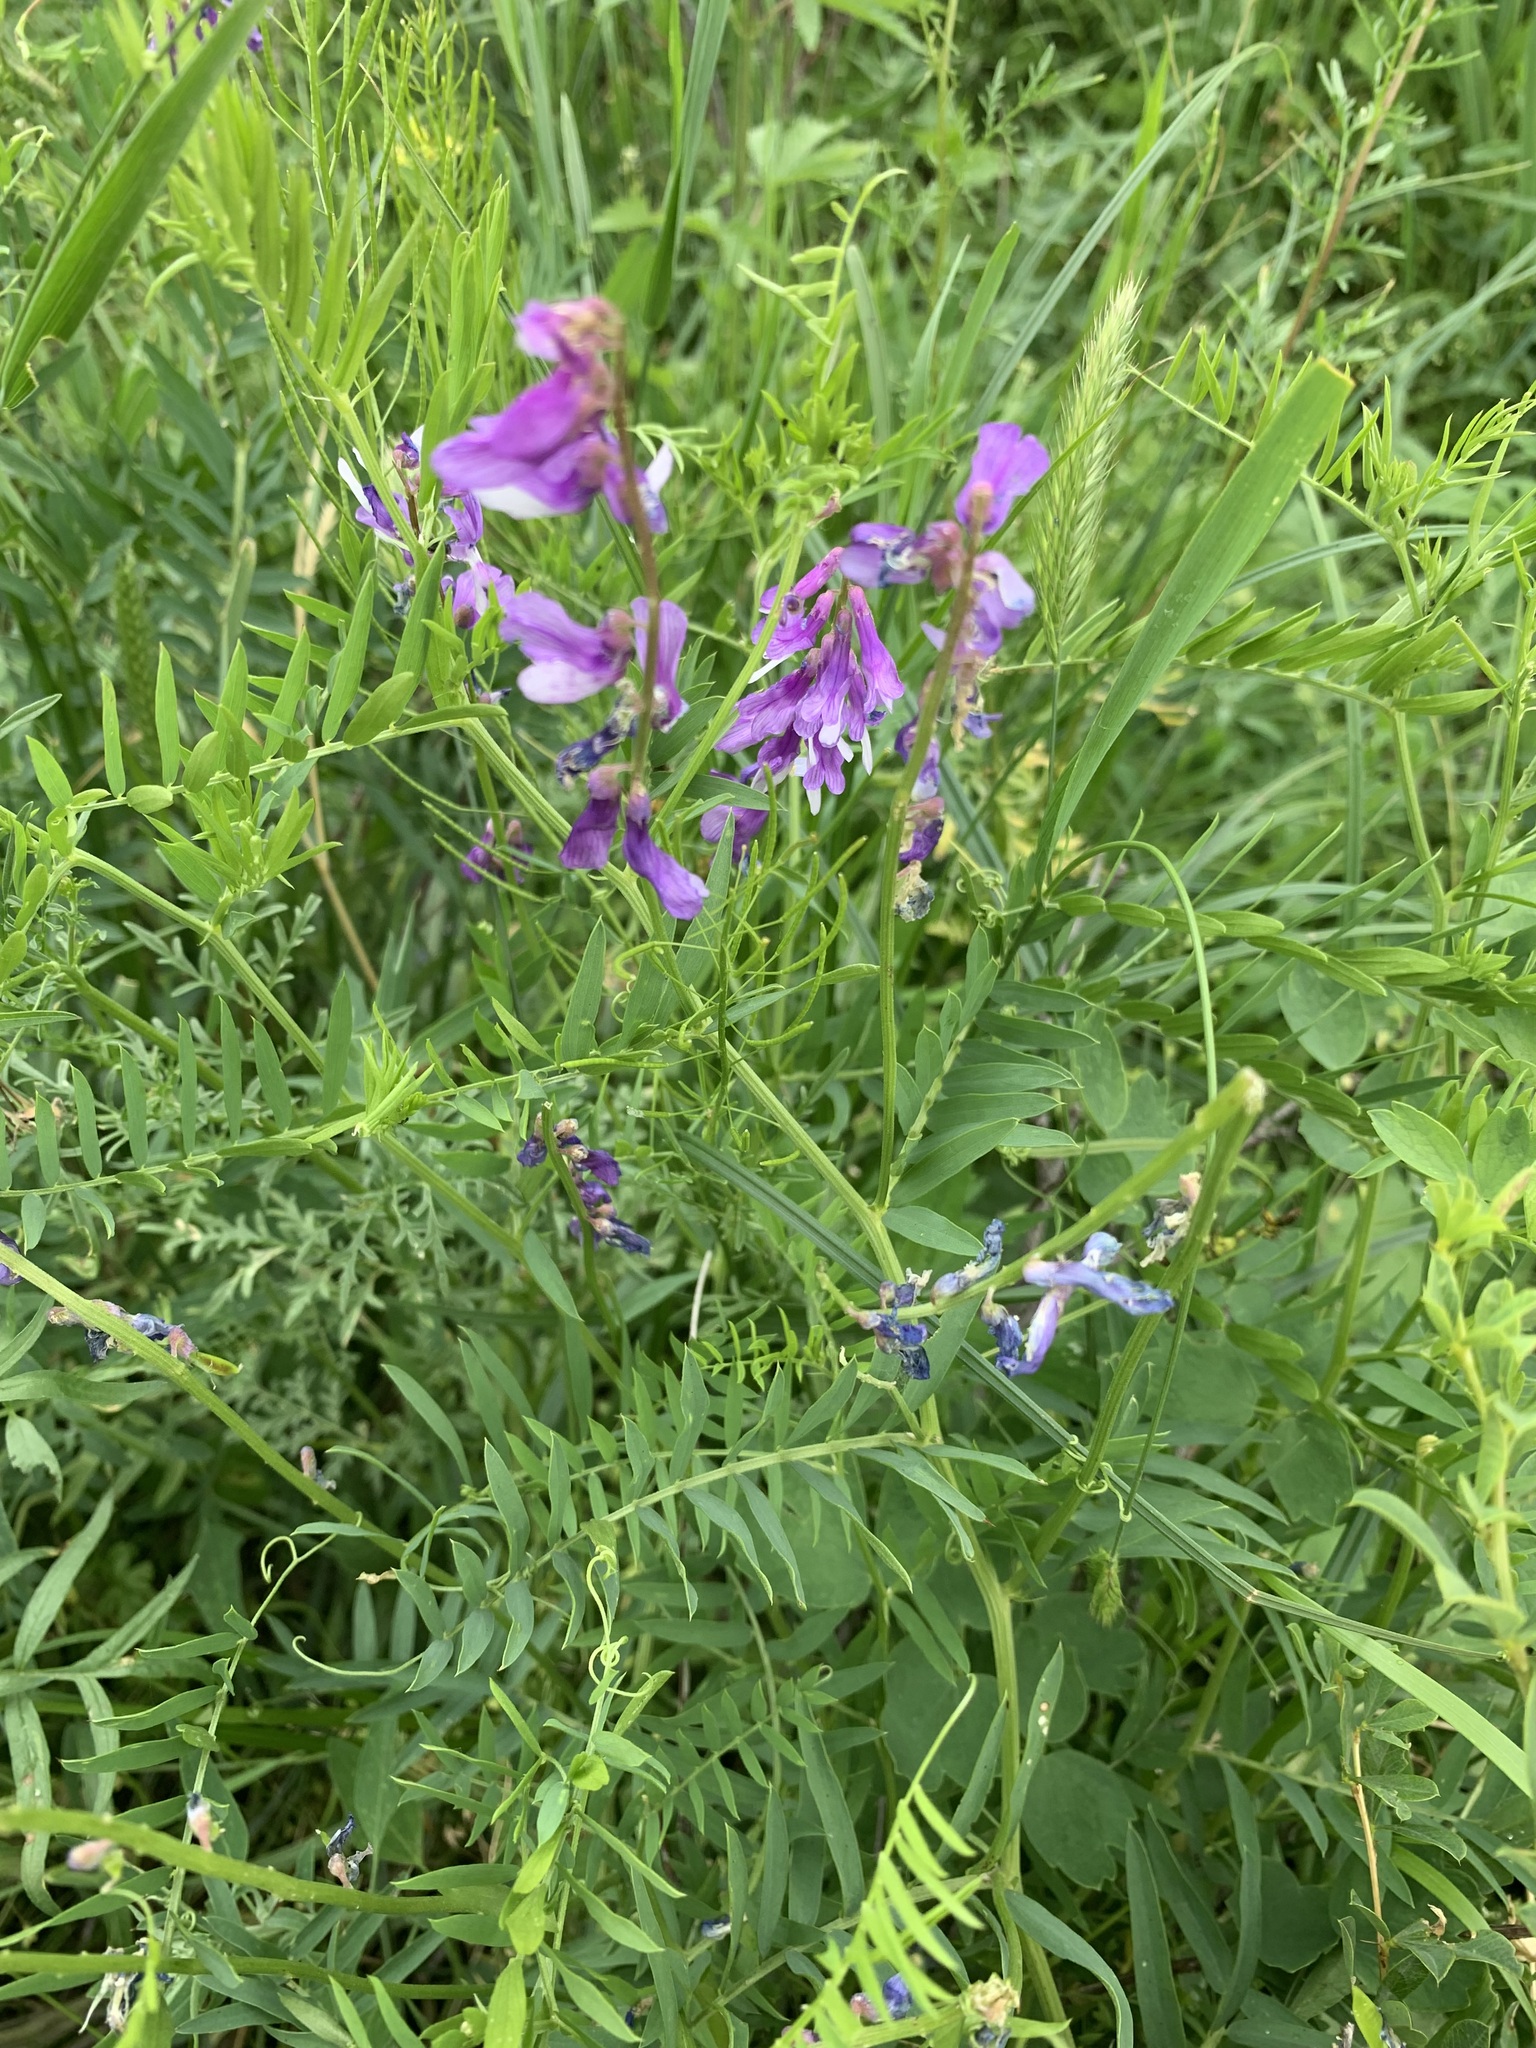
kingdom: Plantae
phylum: Tracheophyta
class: Magnoliopsida
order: Fabales
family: Fabaceae
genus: Vicia
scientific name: Vicia tenuifolia
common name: Fine-leaved vetch
